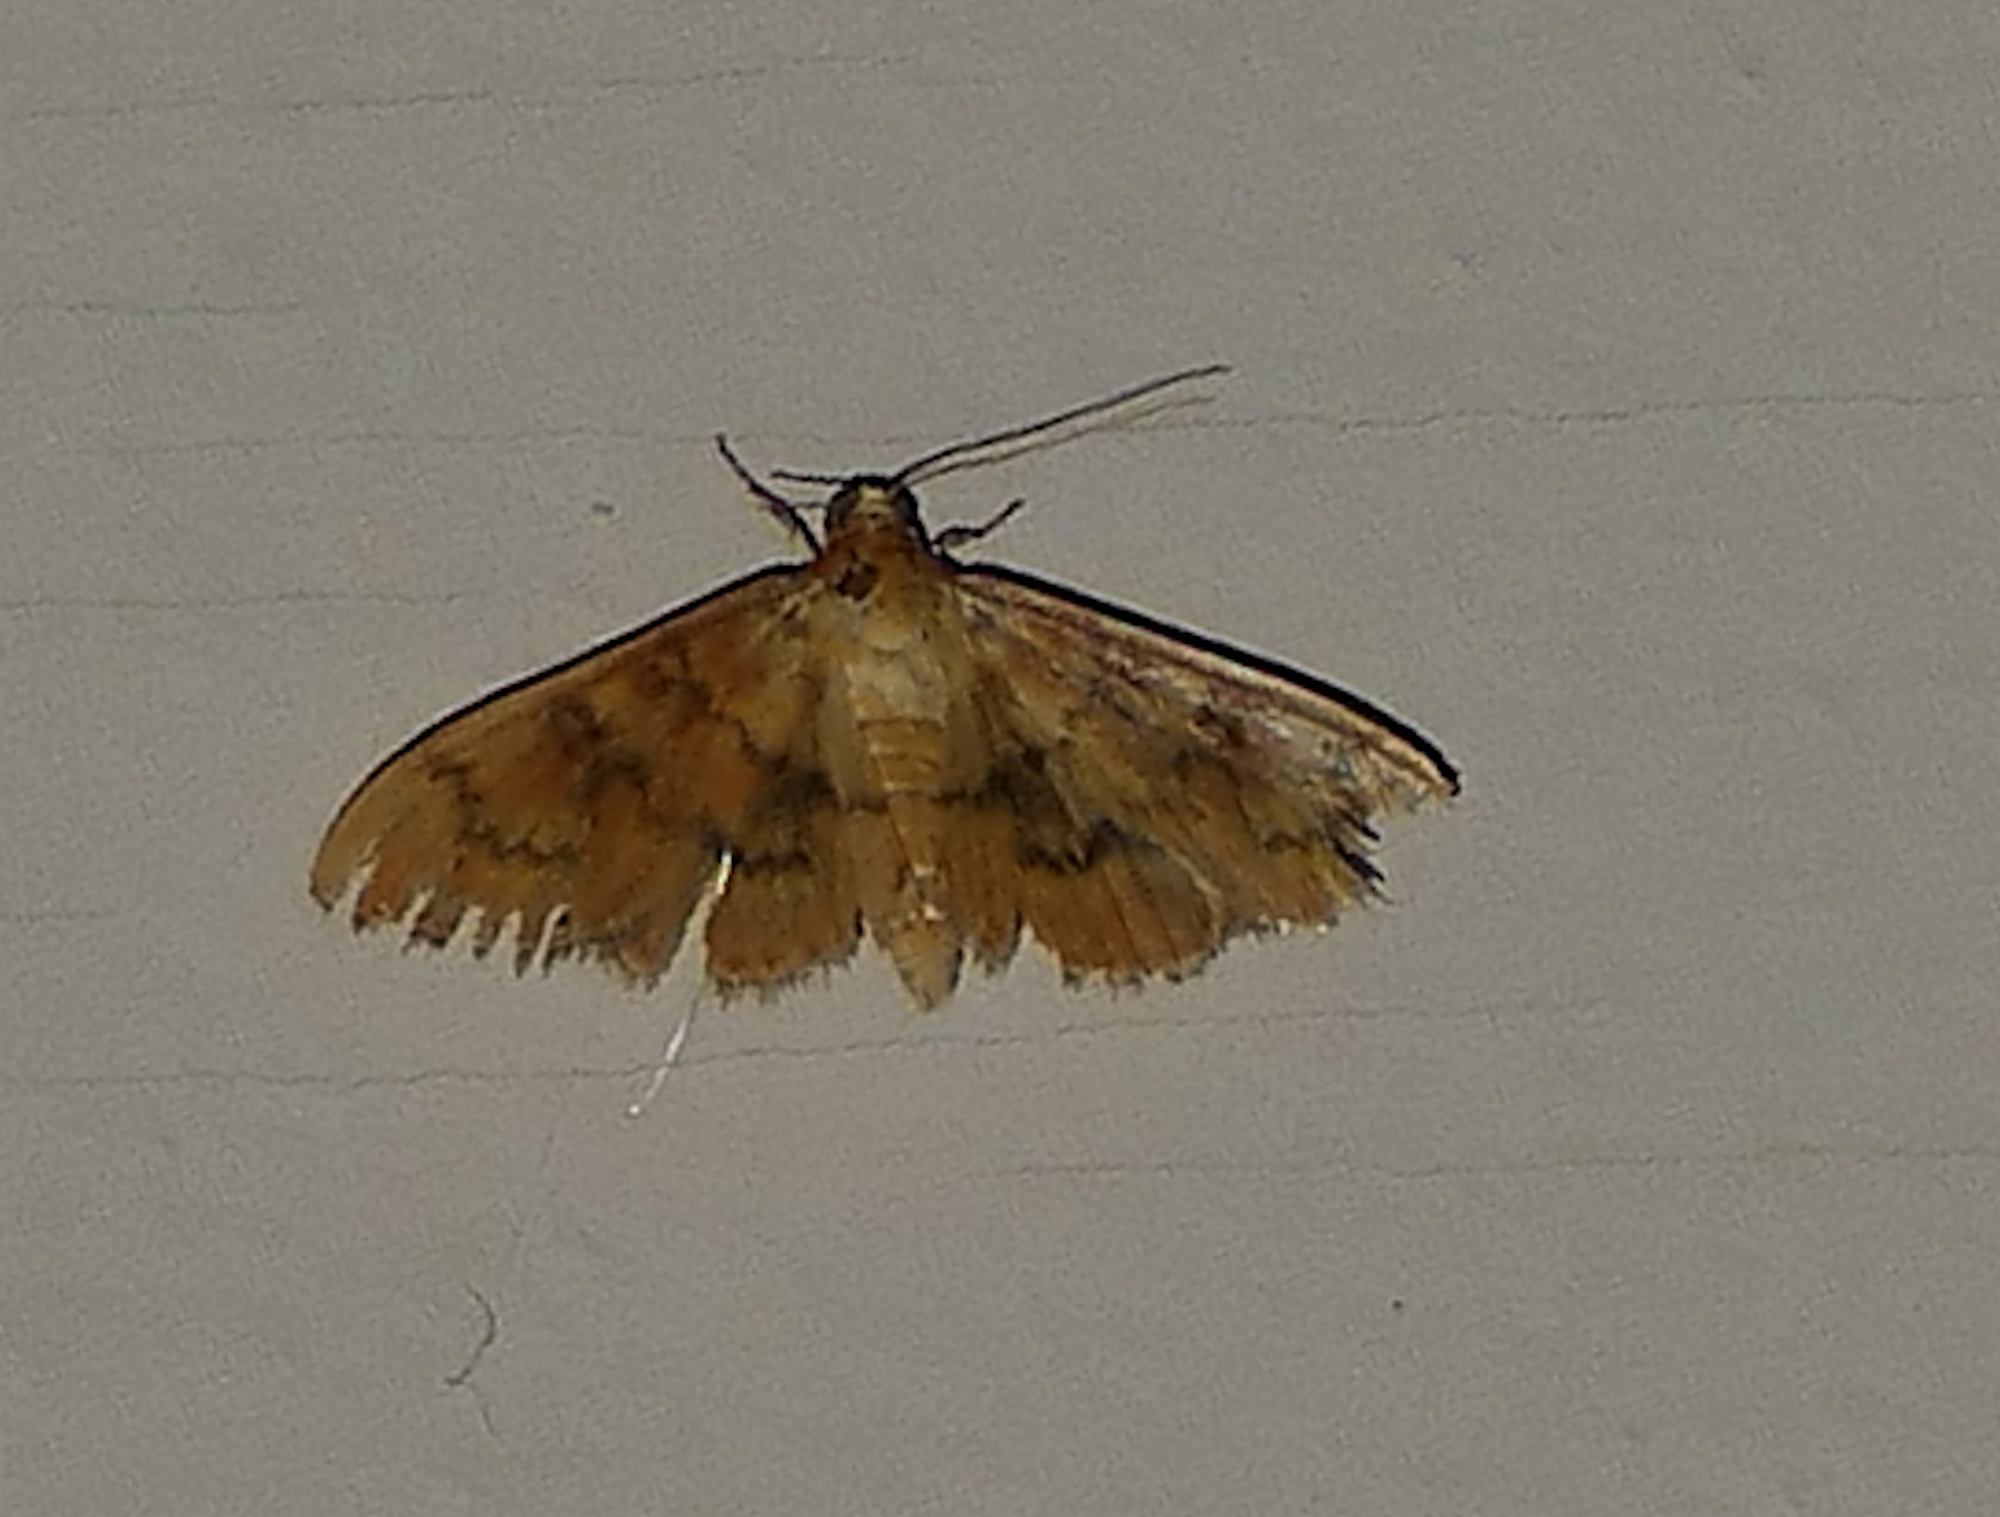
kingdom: Animalia
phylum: Arthropoda
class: Insecta
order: Lepidoptera
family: Crambidae
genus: Pilocrocis
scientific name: Pilocrocis dryalis
